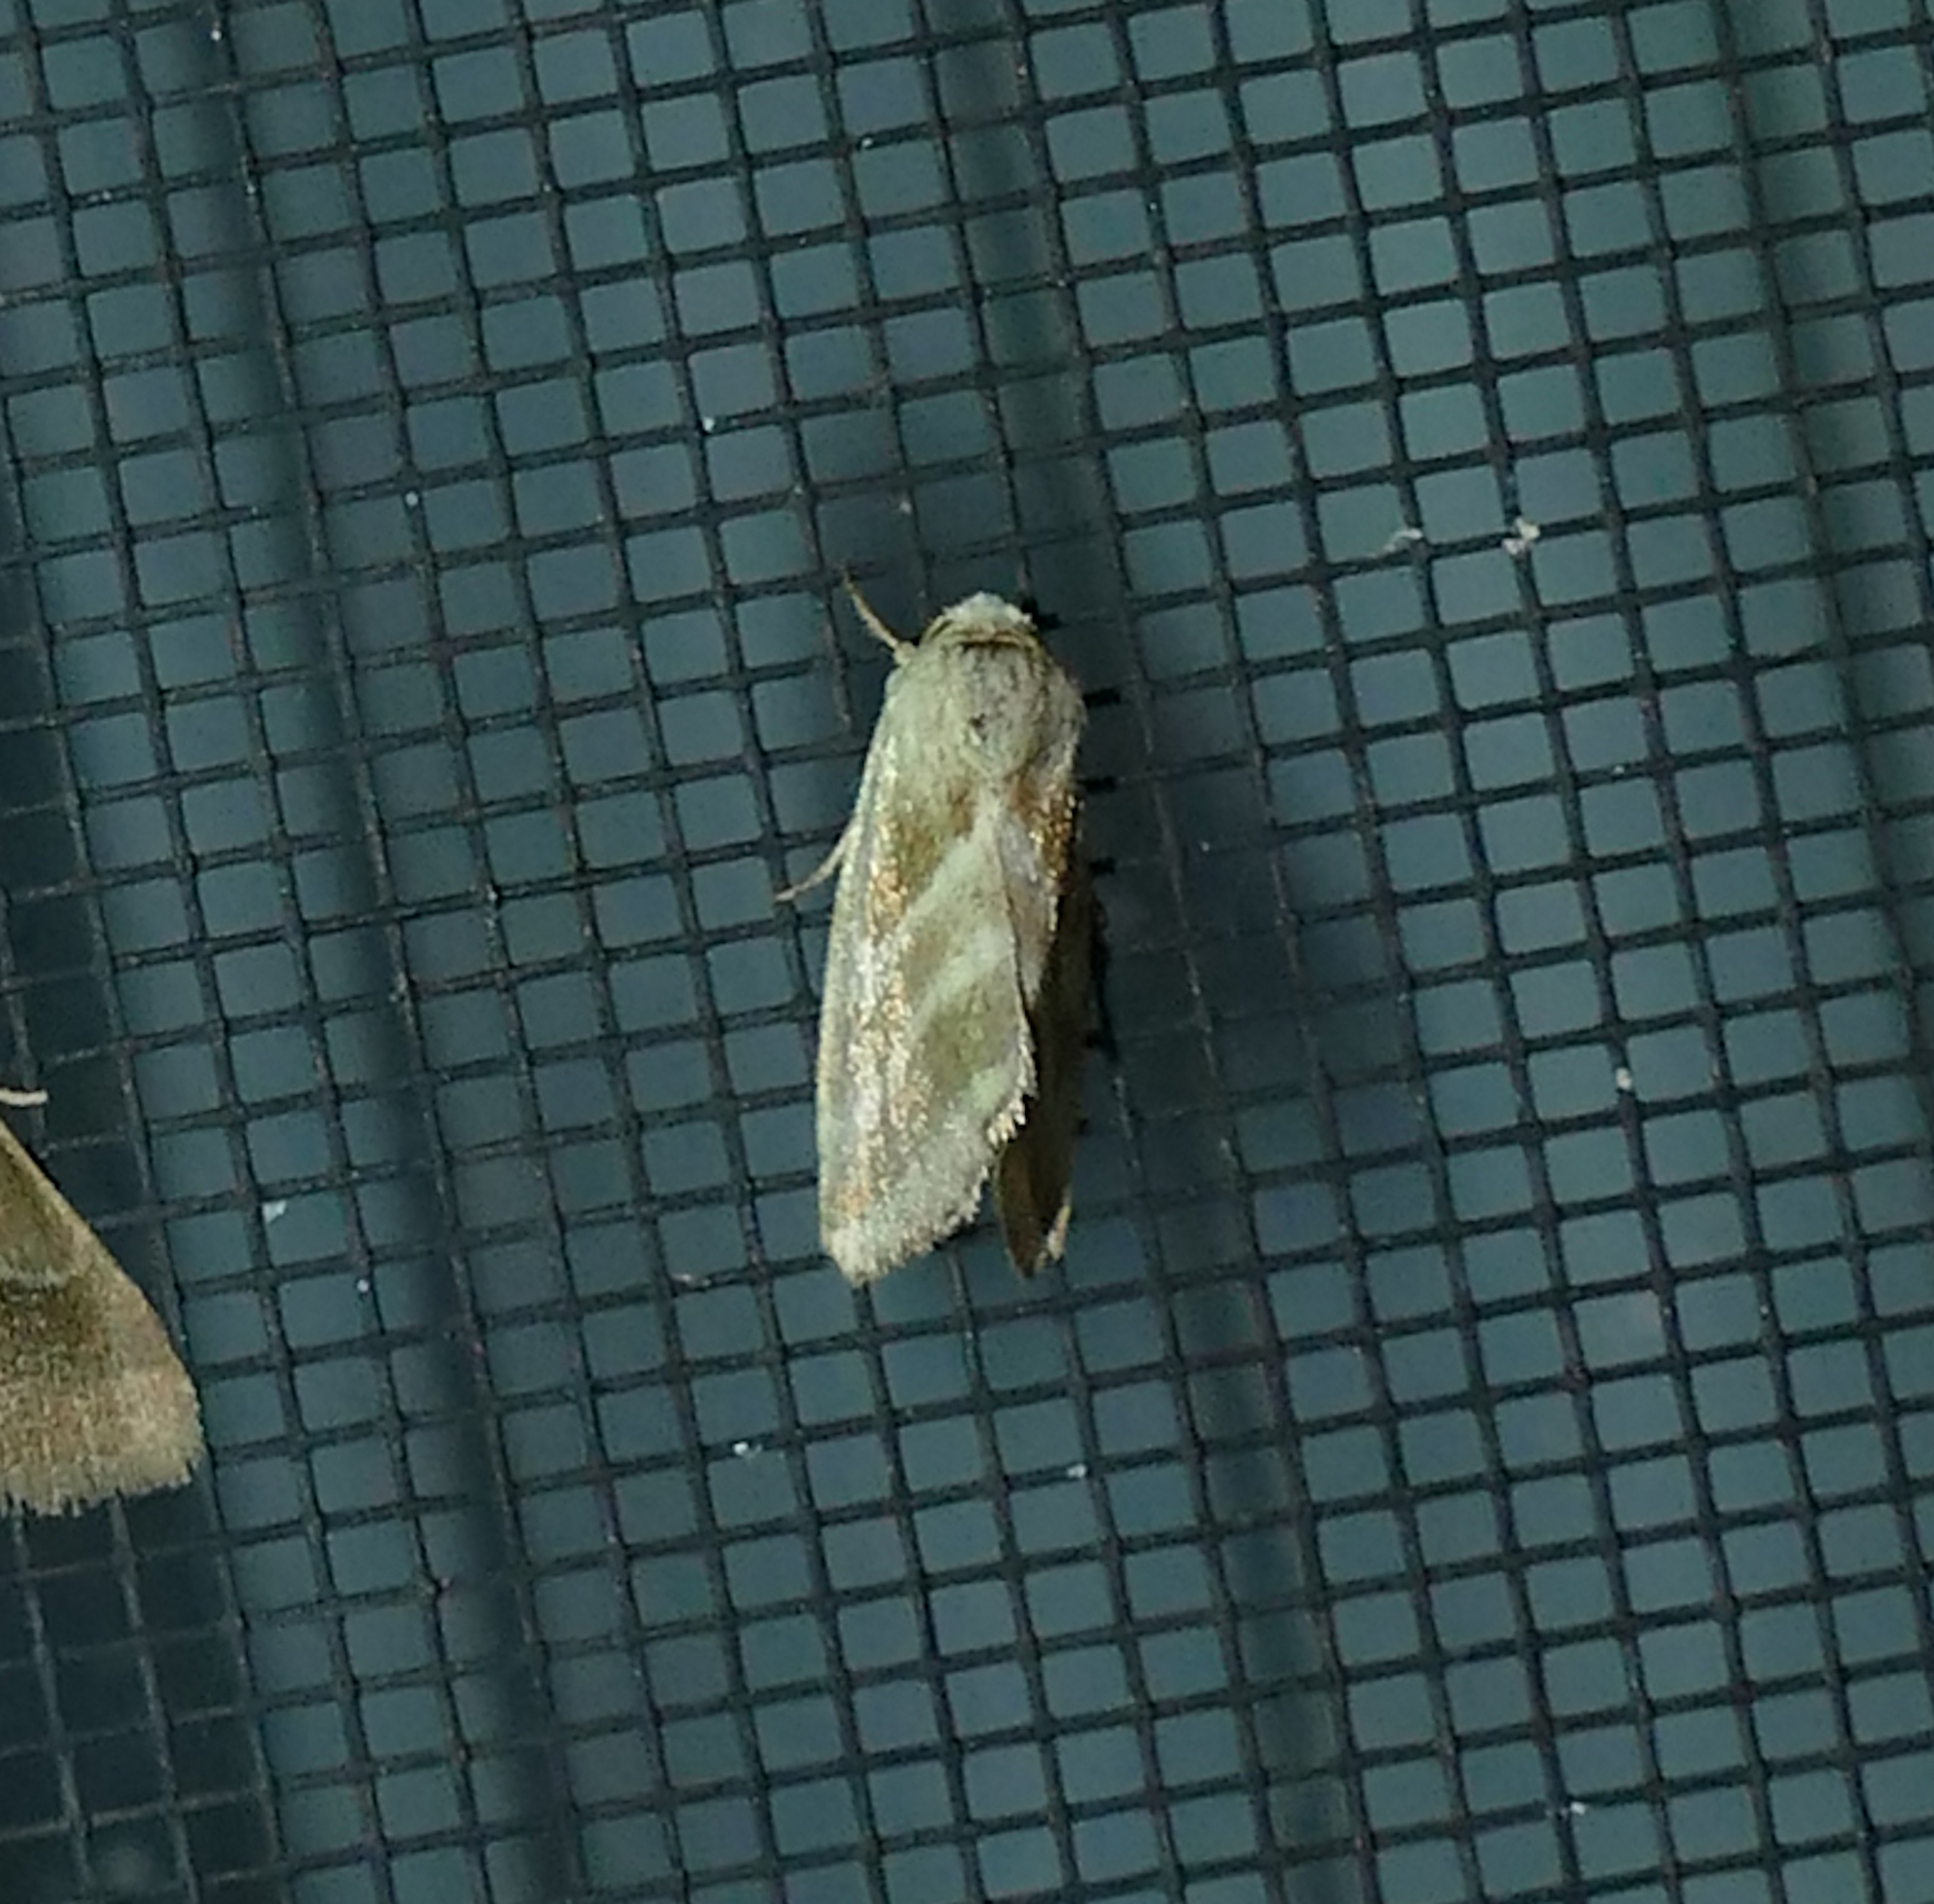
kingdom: Animalia
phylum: Arthropoda
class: Insecta
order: Lepidoptera
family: Noctuidae
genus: Schinia
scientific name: Schinia trifascia
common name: Three-lined flower moth
